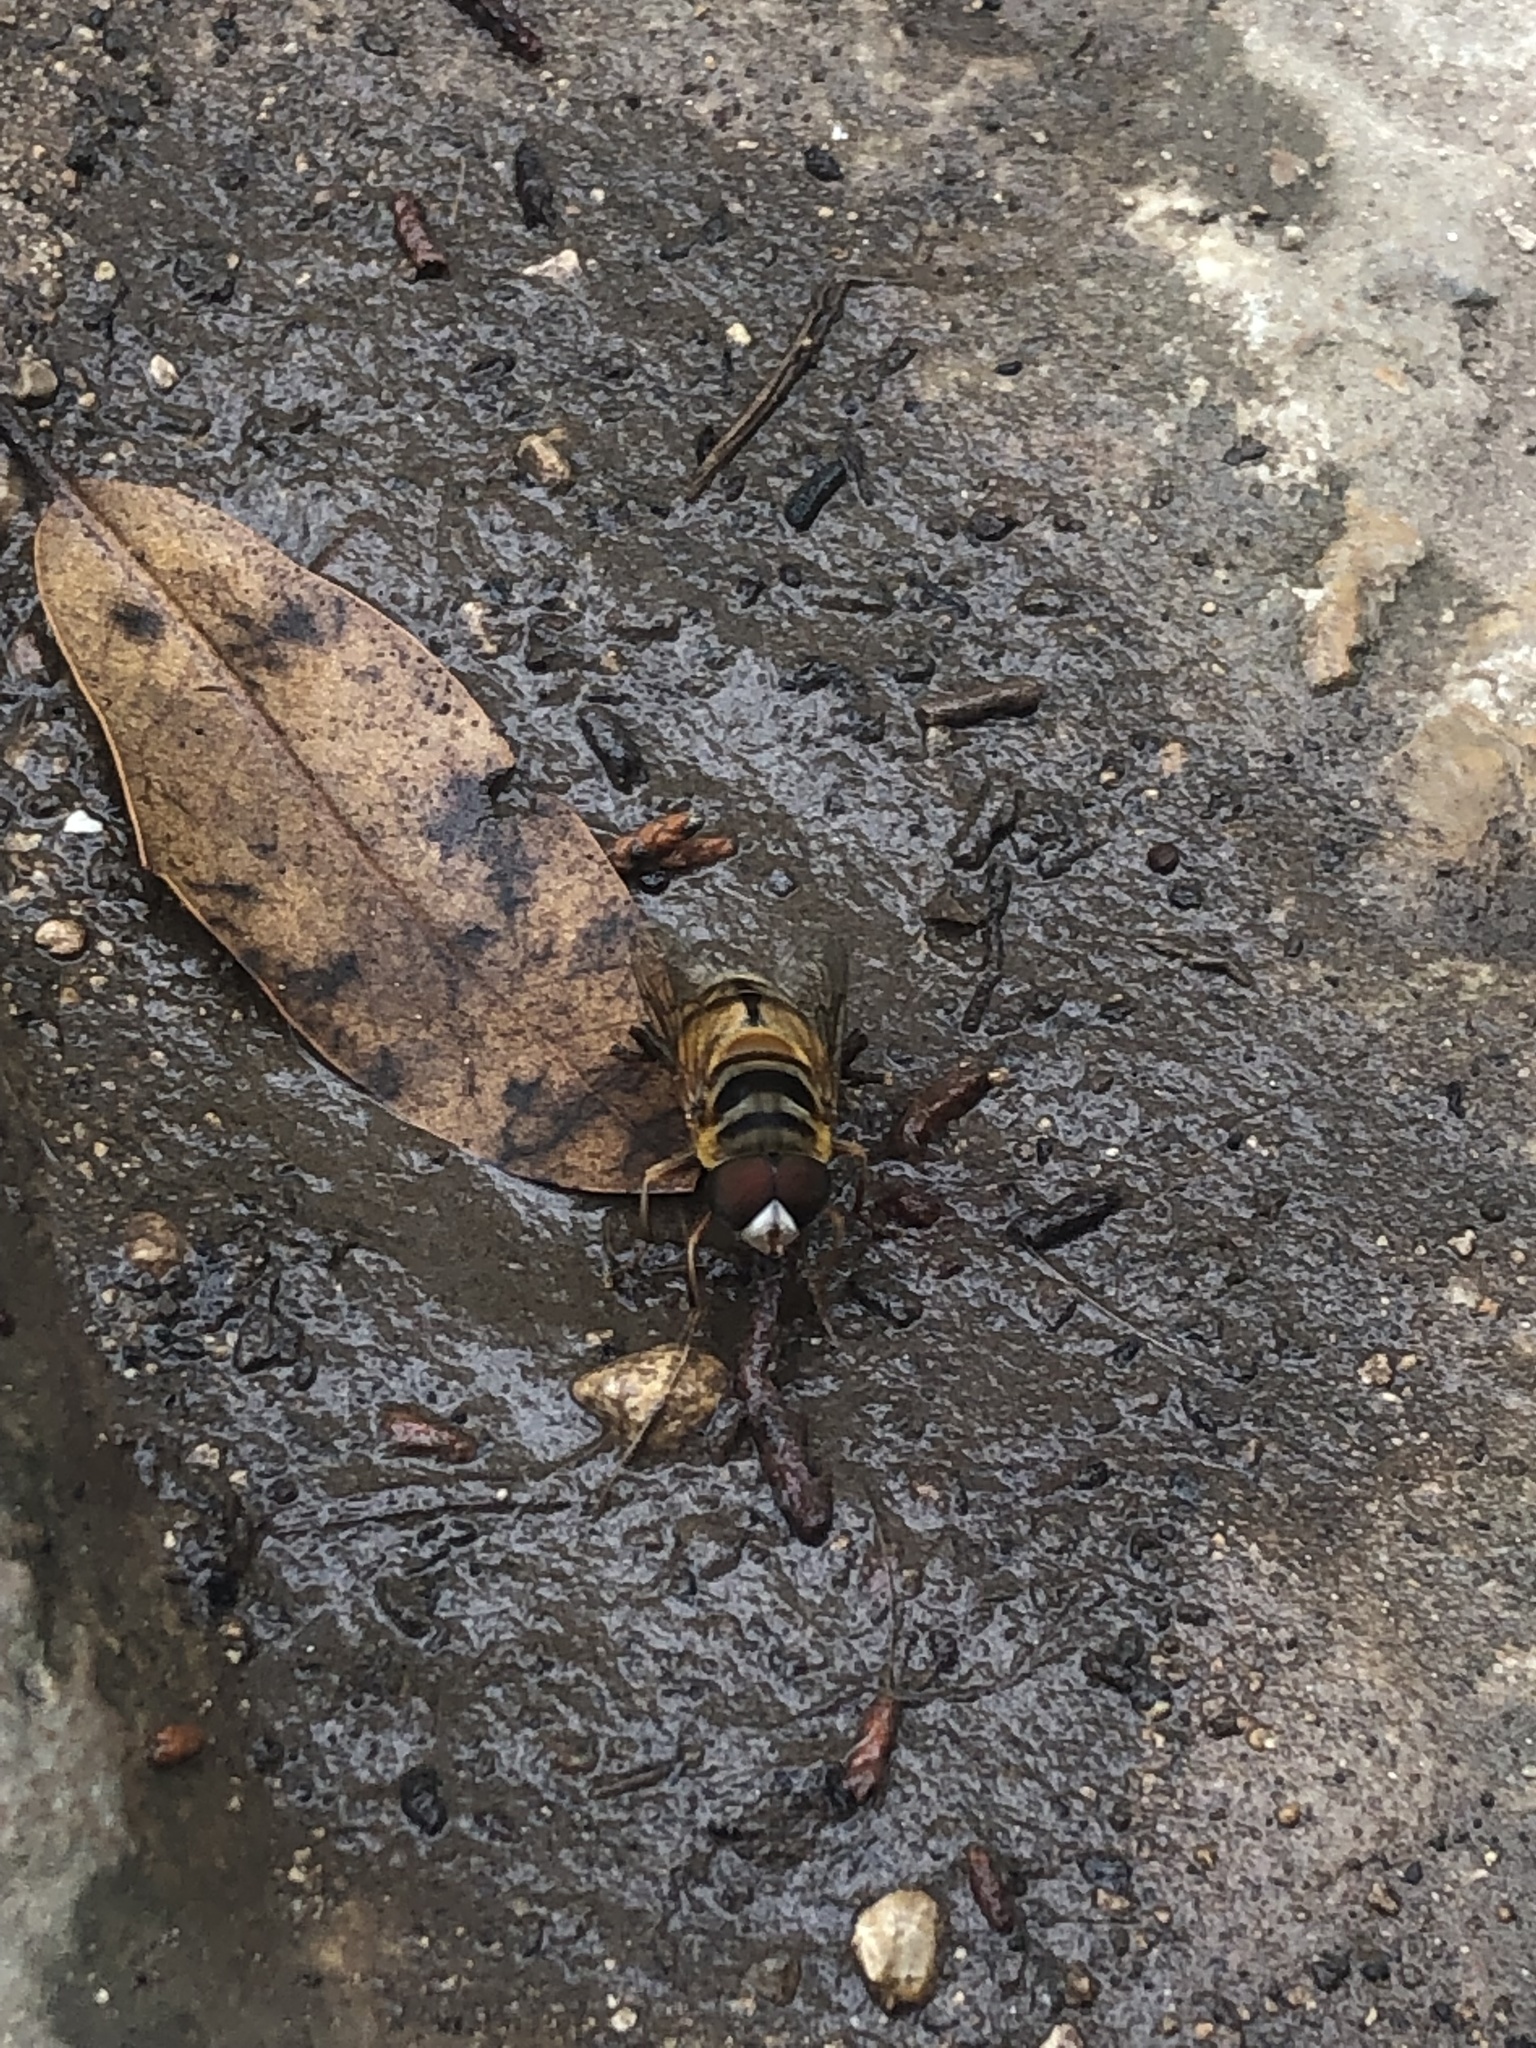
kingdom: Animalia
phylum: Arthropoda
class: Insecta
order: Diptera
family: Syrphidae
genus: Palpada
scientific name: Palpada vinetorum
